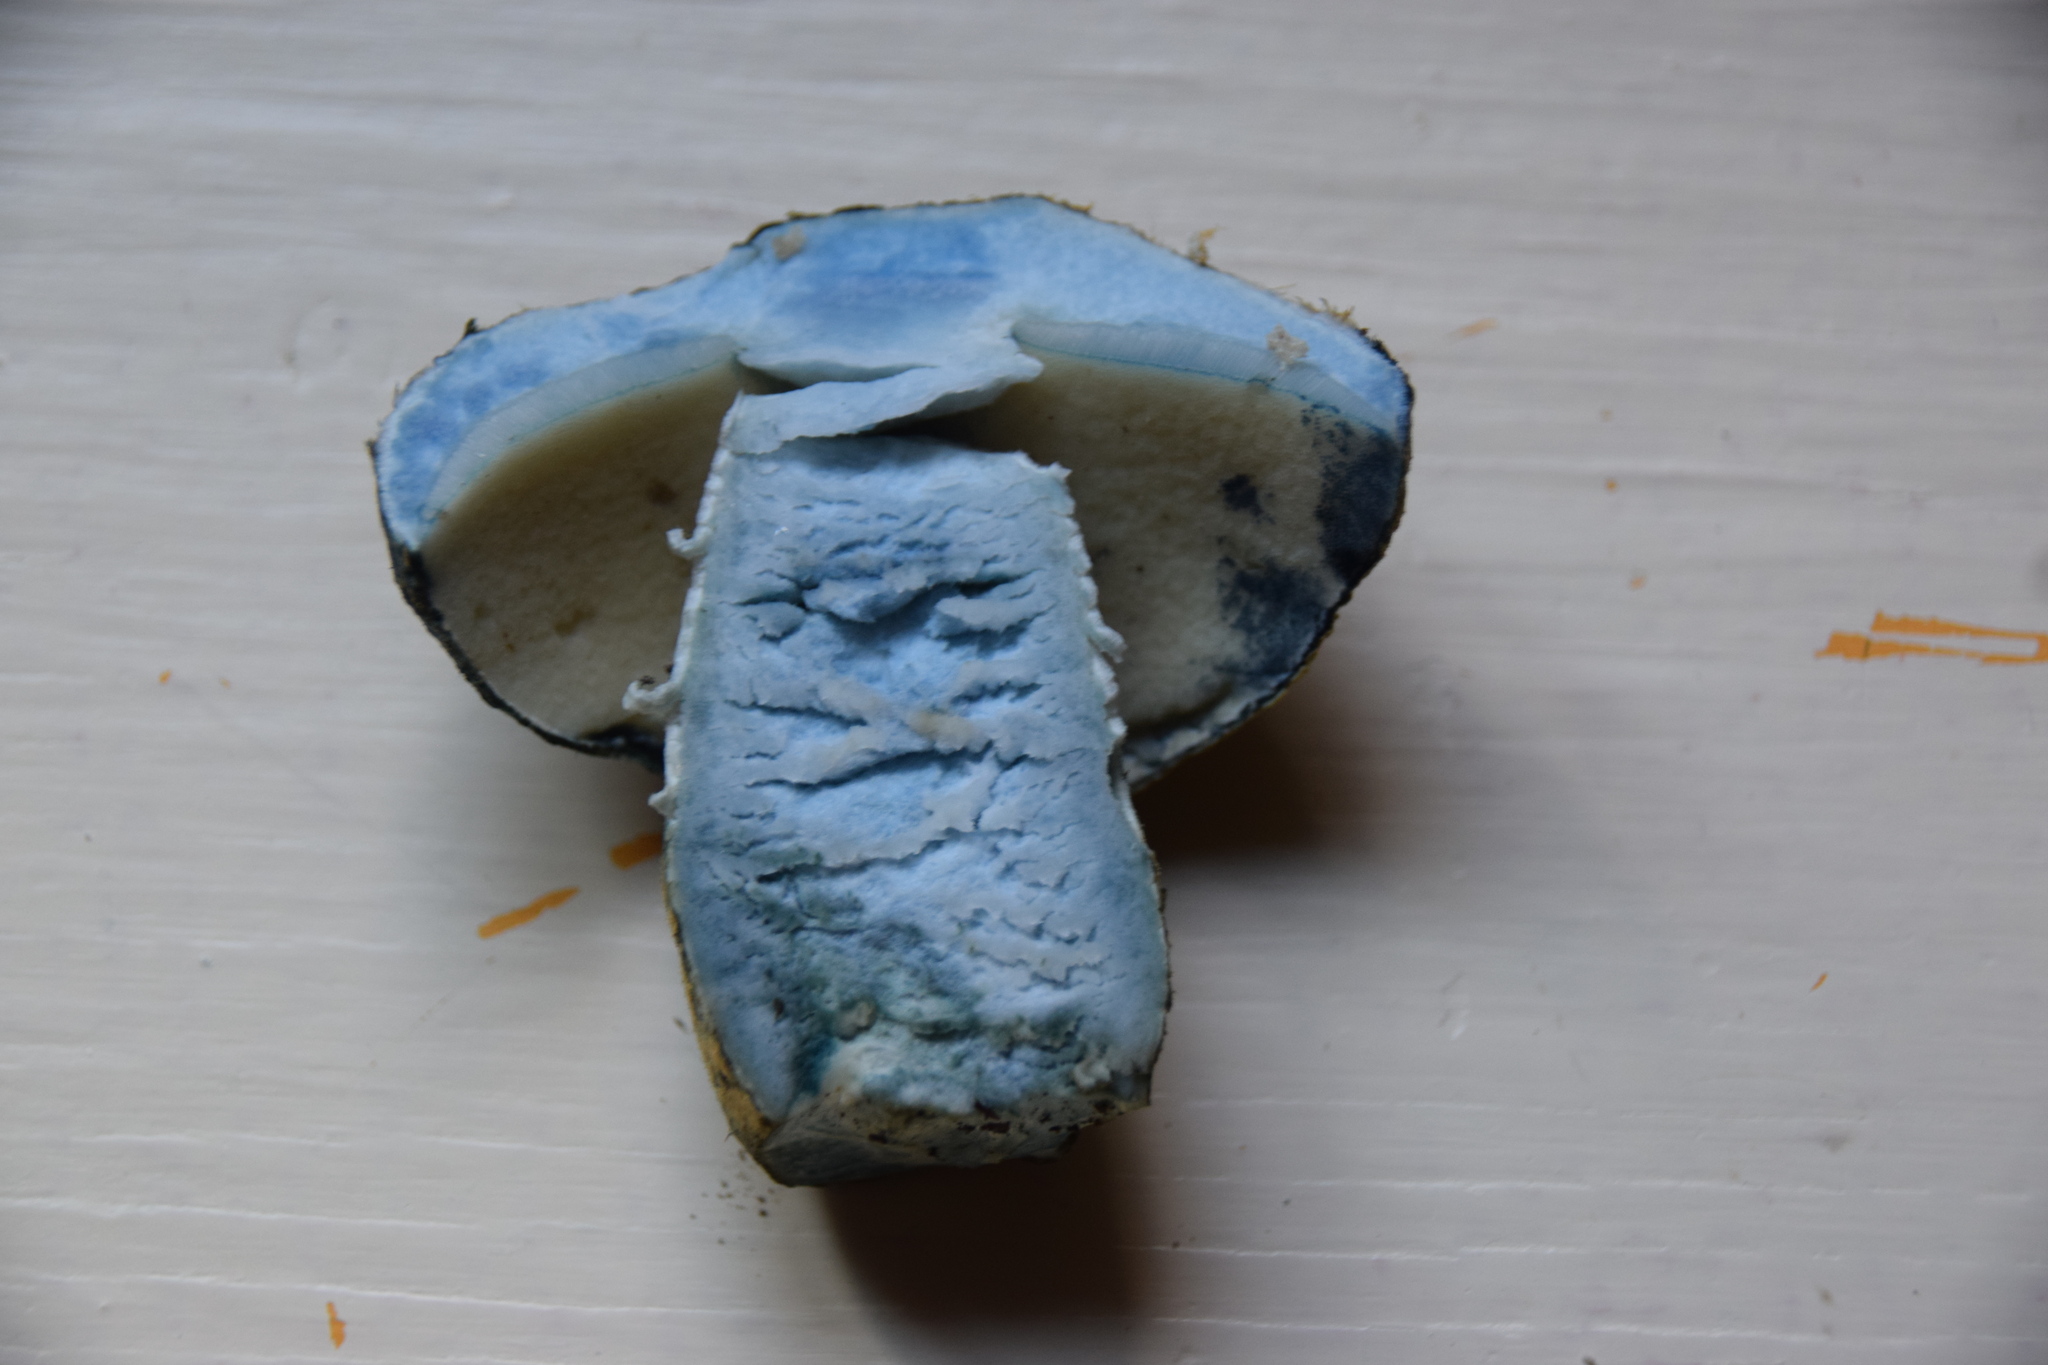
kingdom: Fungi
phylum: Basidiomycota
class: Agaricomycetes
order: Boletales
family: Gyroporaceae
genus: Gyroporus
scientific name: Gyroporus cyanescens
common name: Cornflower bolete
